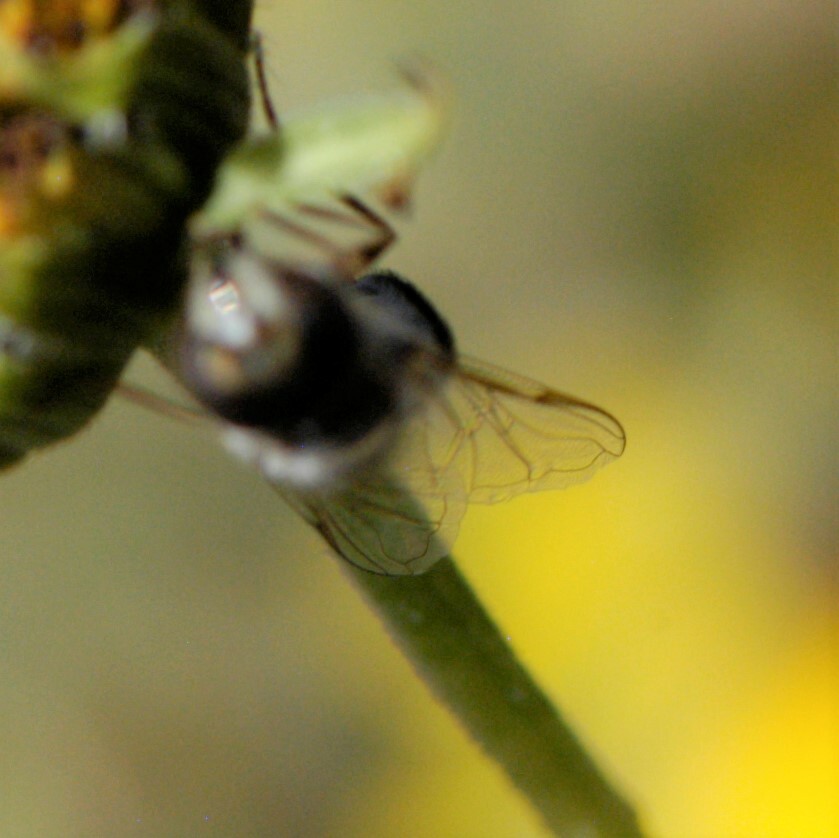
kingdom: Animalia
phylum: Arthropoda
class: Insecta
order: Diptera
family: Syrphidae
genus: Scaeva
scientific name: Scaeva affinis
